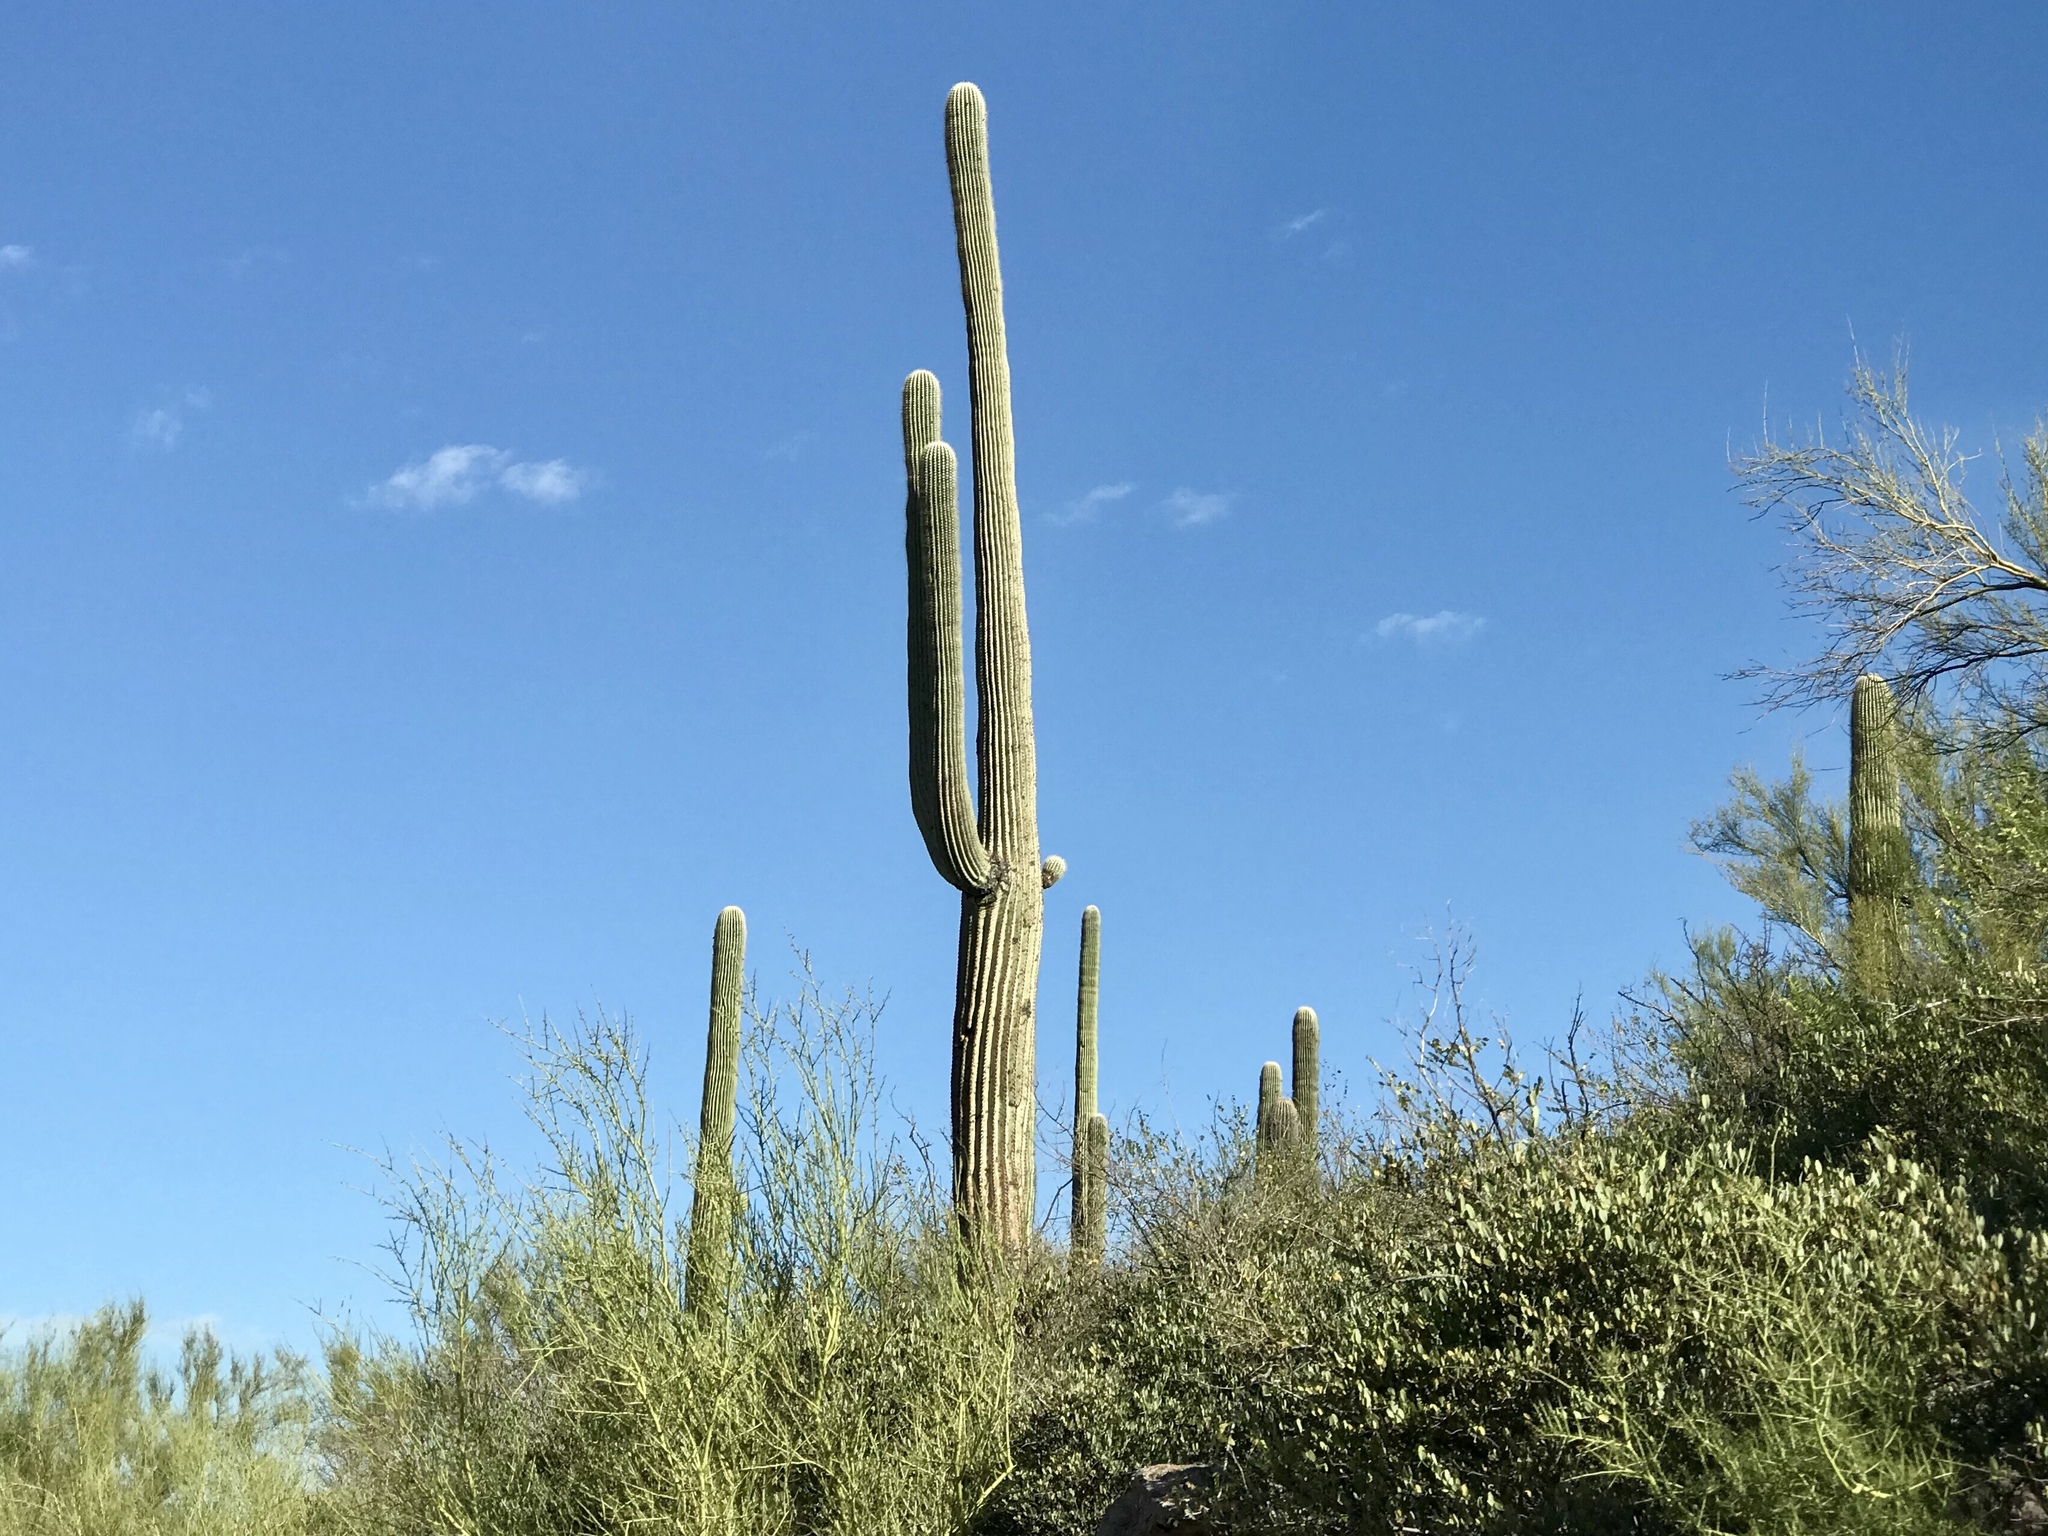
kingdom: Plantae
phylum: Tracheophyta
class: Magnoliopsida
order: Caryophyllales
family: Cactaceae
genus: Carnegiea
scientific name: Carnegiea gigantea
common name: Saguaro
